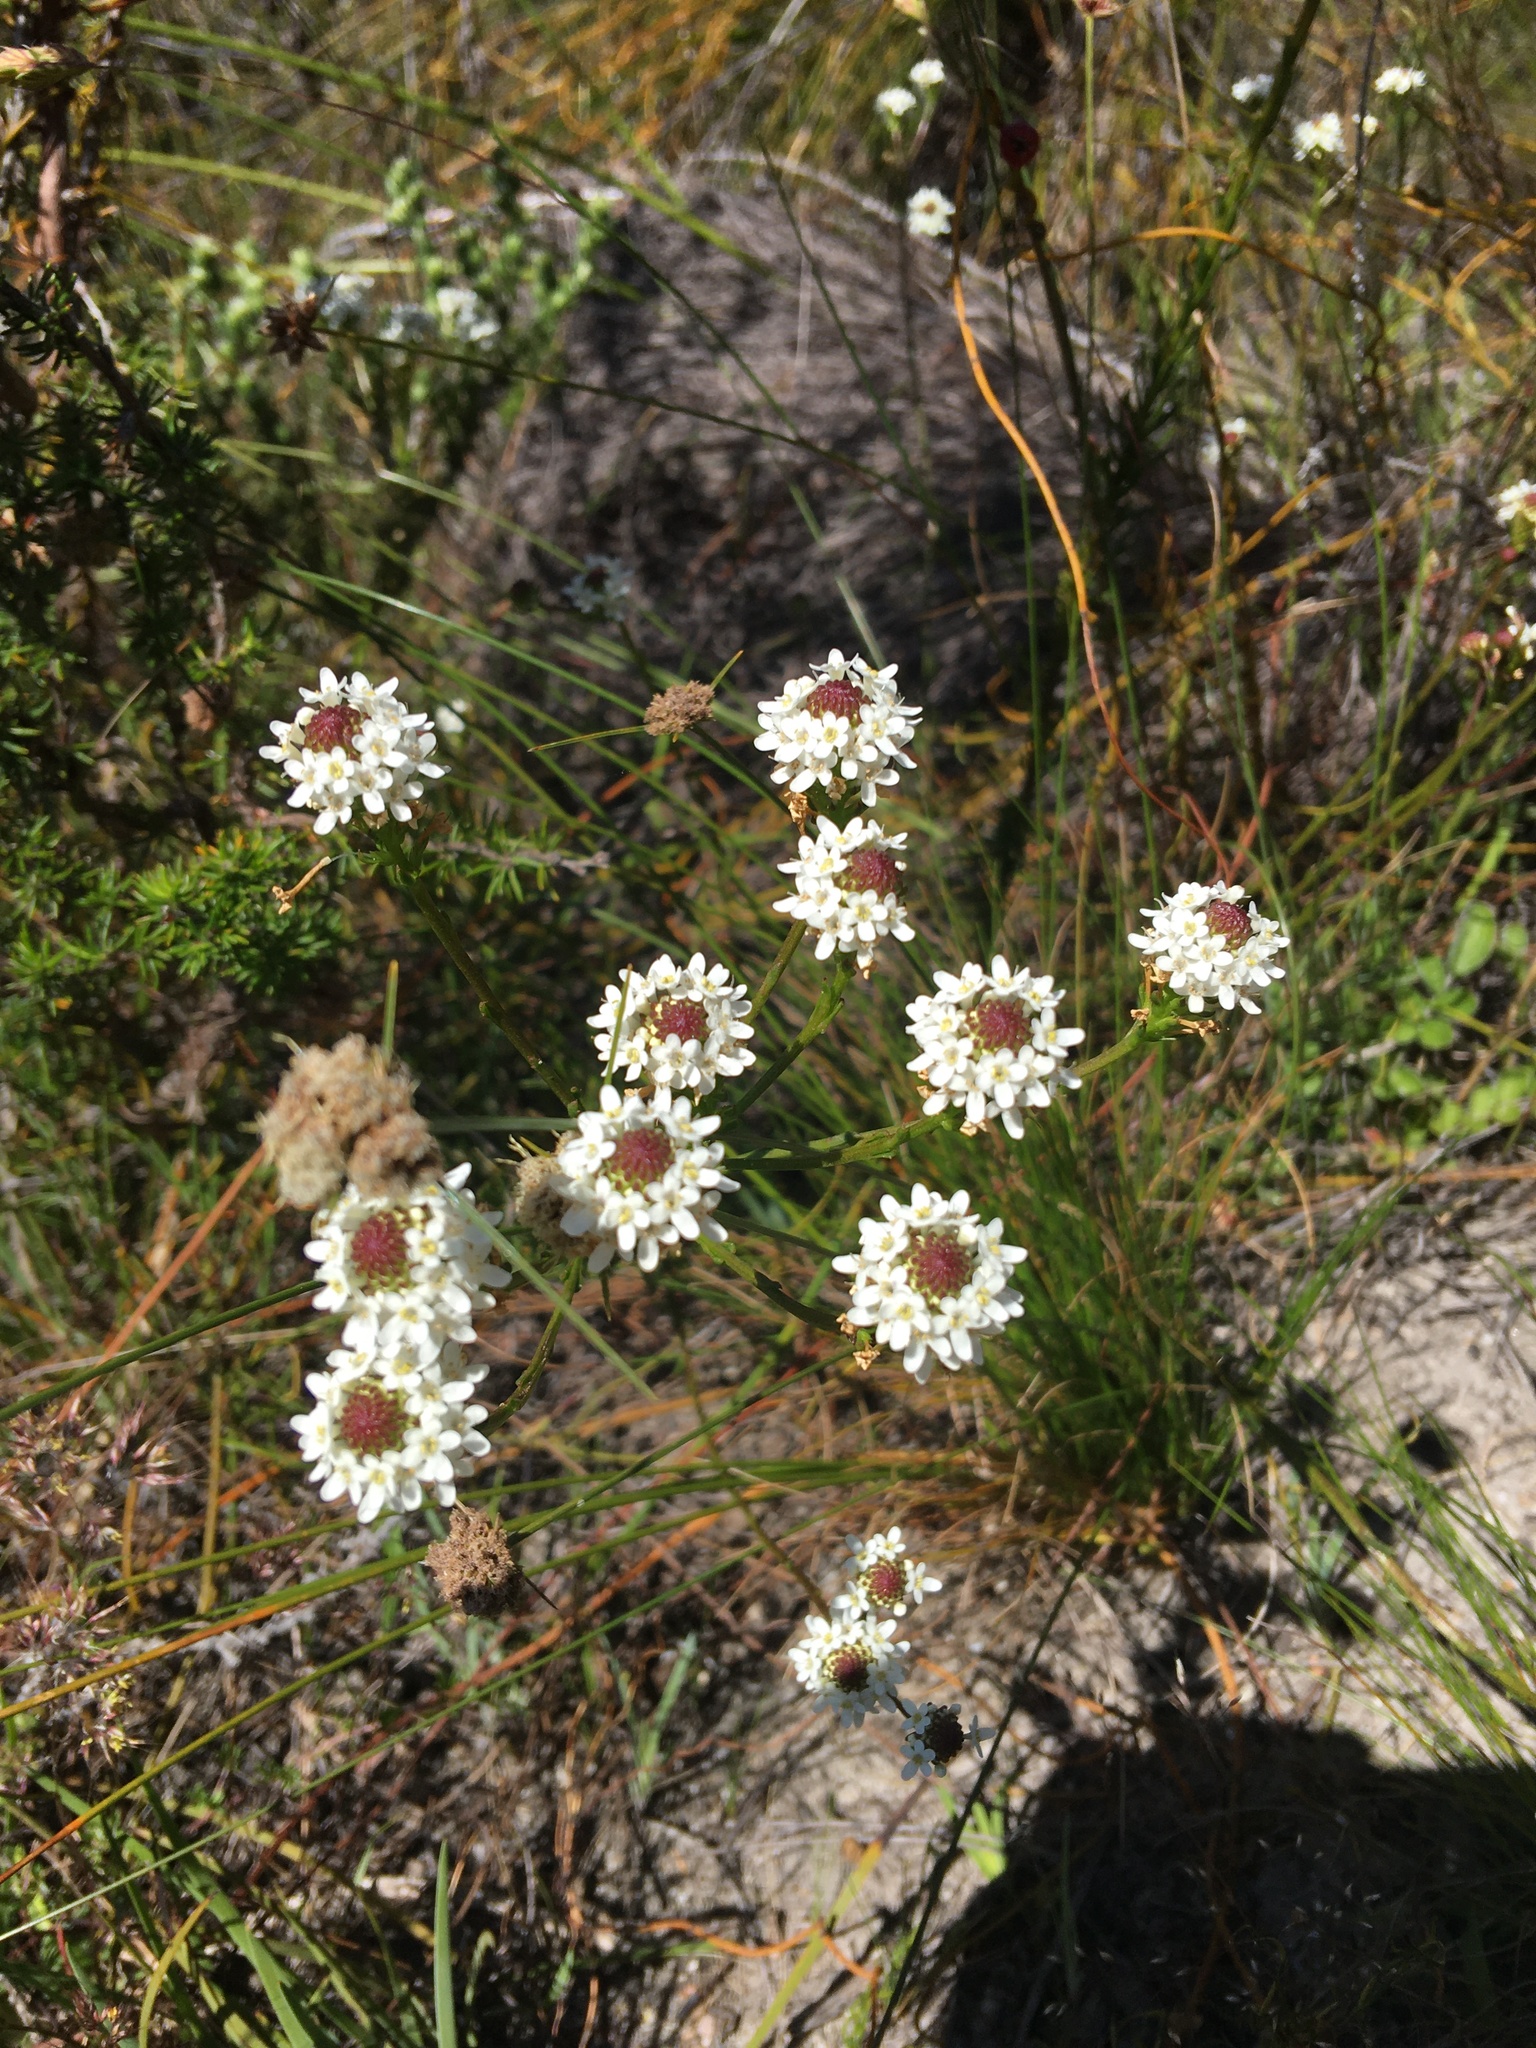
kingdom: Plantae
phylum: Tracheophyta
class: Magnoliopsida
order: Lamiales
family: Scrophulariaceae
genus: Pseudoselago
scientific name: Pseudoselago spuria
